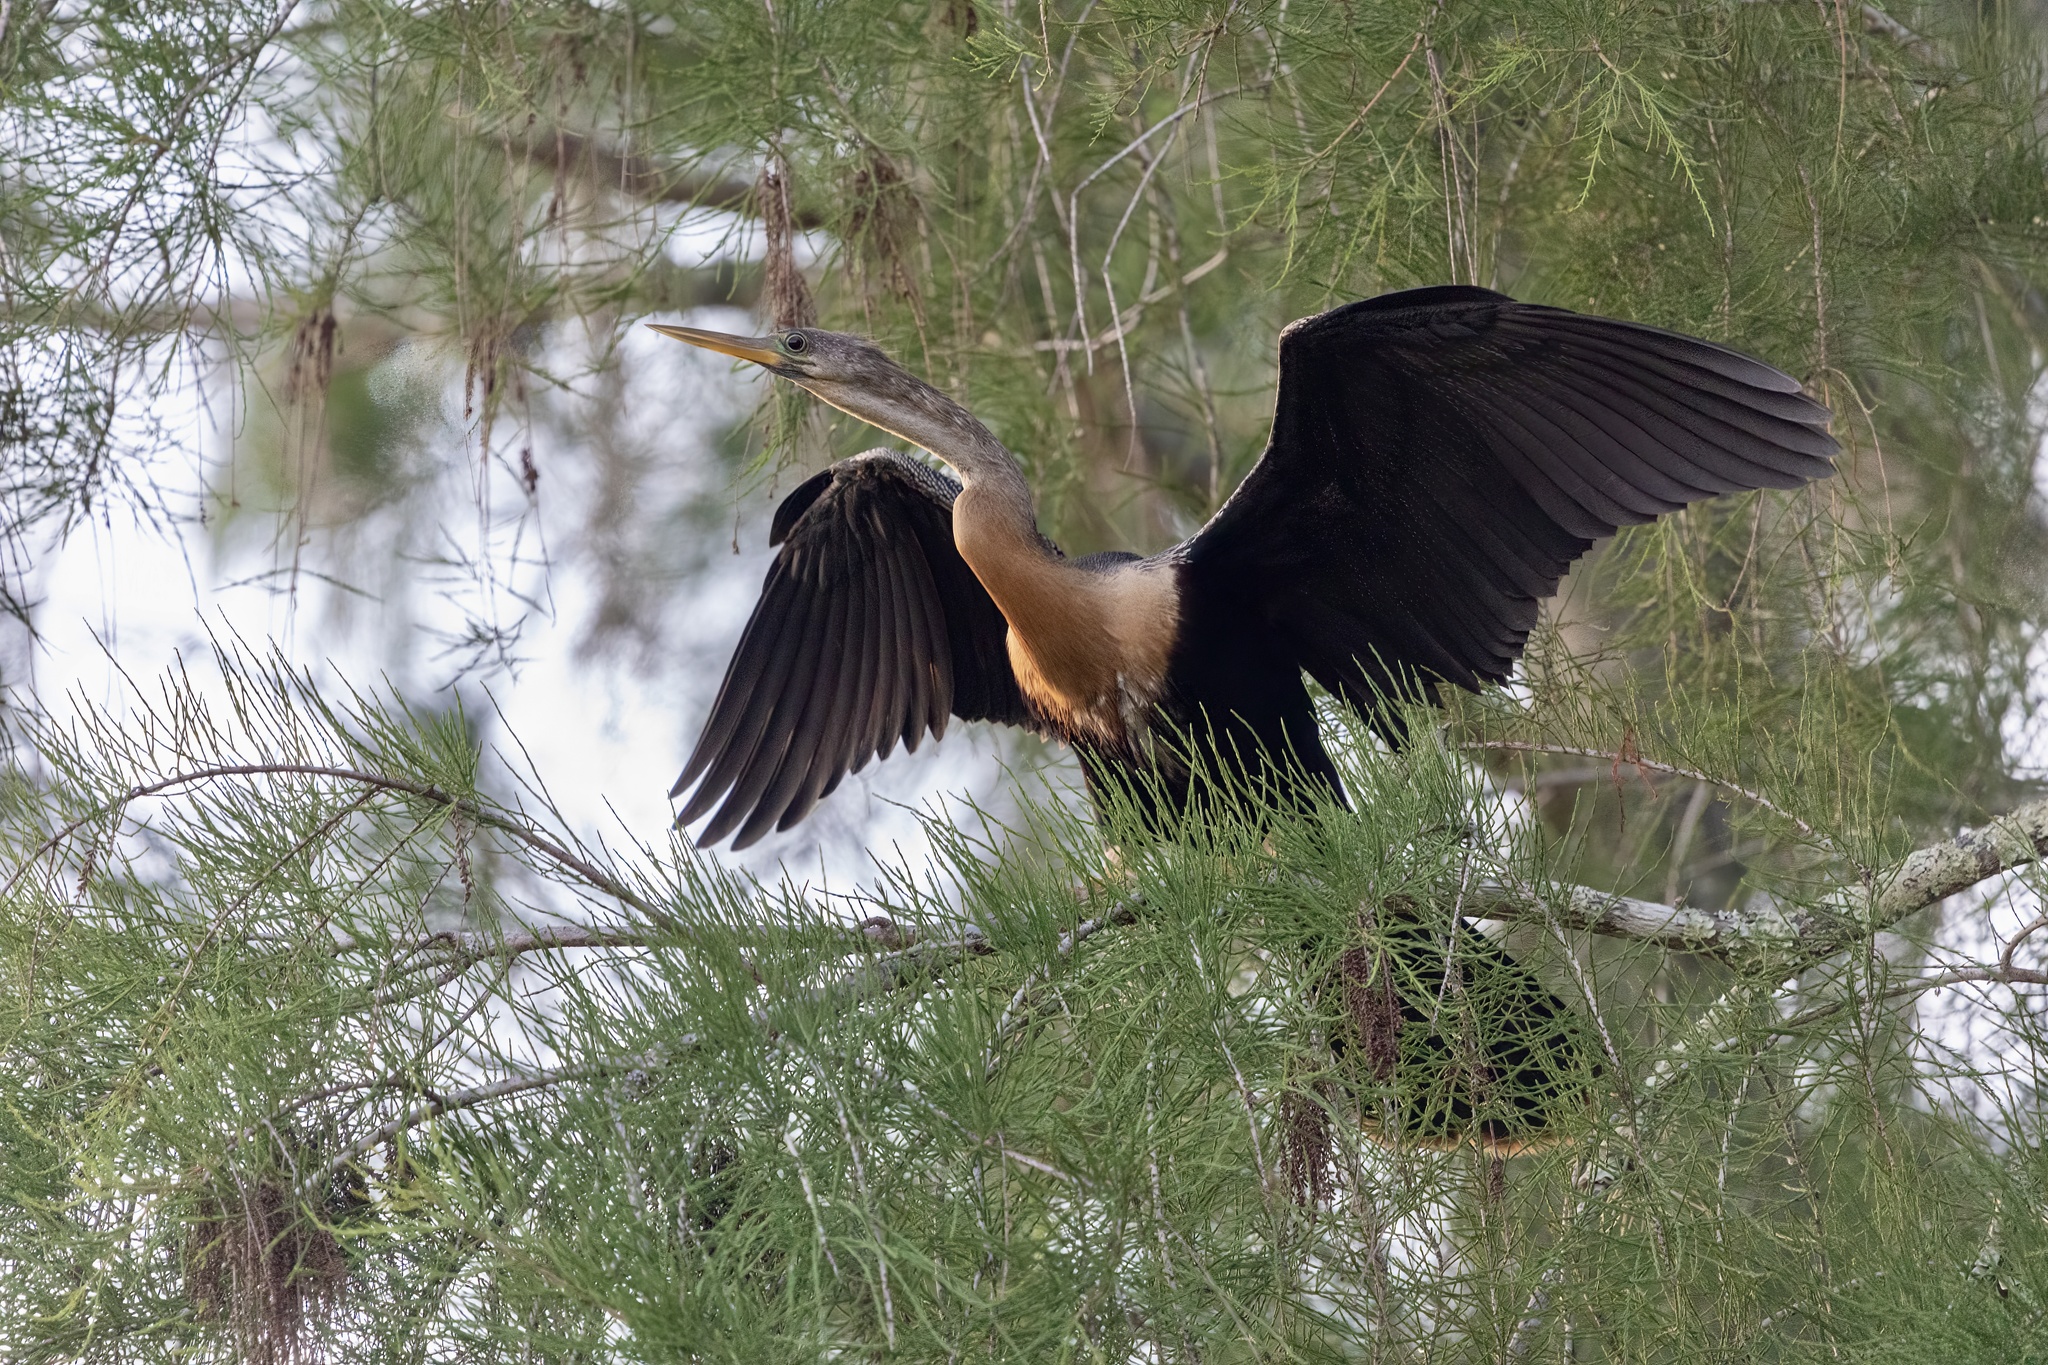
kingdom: Animalia
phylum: Chordata
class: Aves
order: Suliformes
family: Anhingidae
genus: Anhinga
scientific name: Anhinga anhinga
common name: Anhinga
